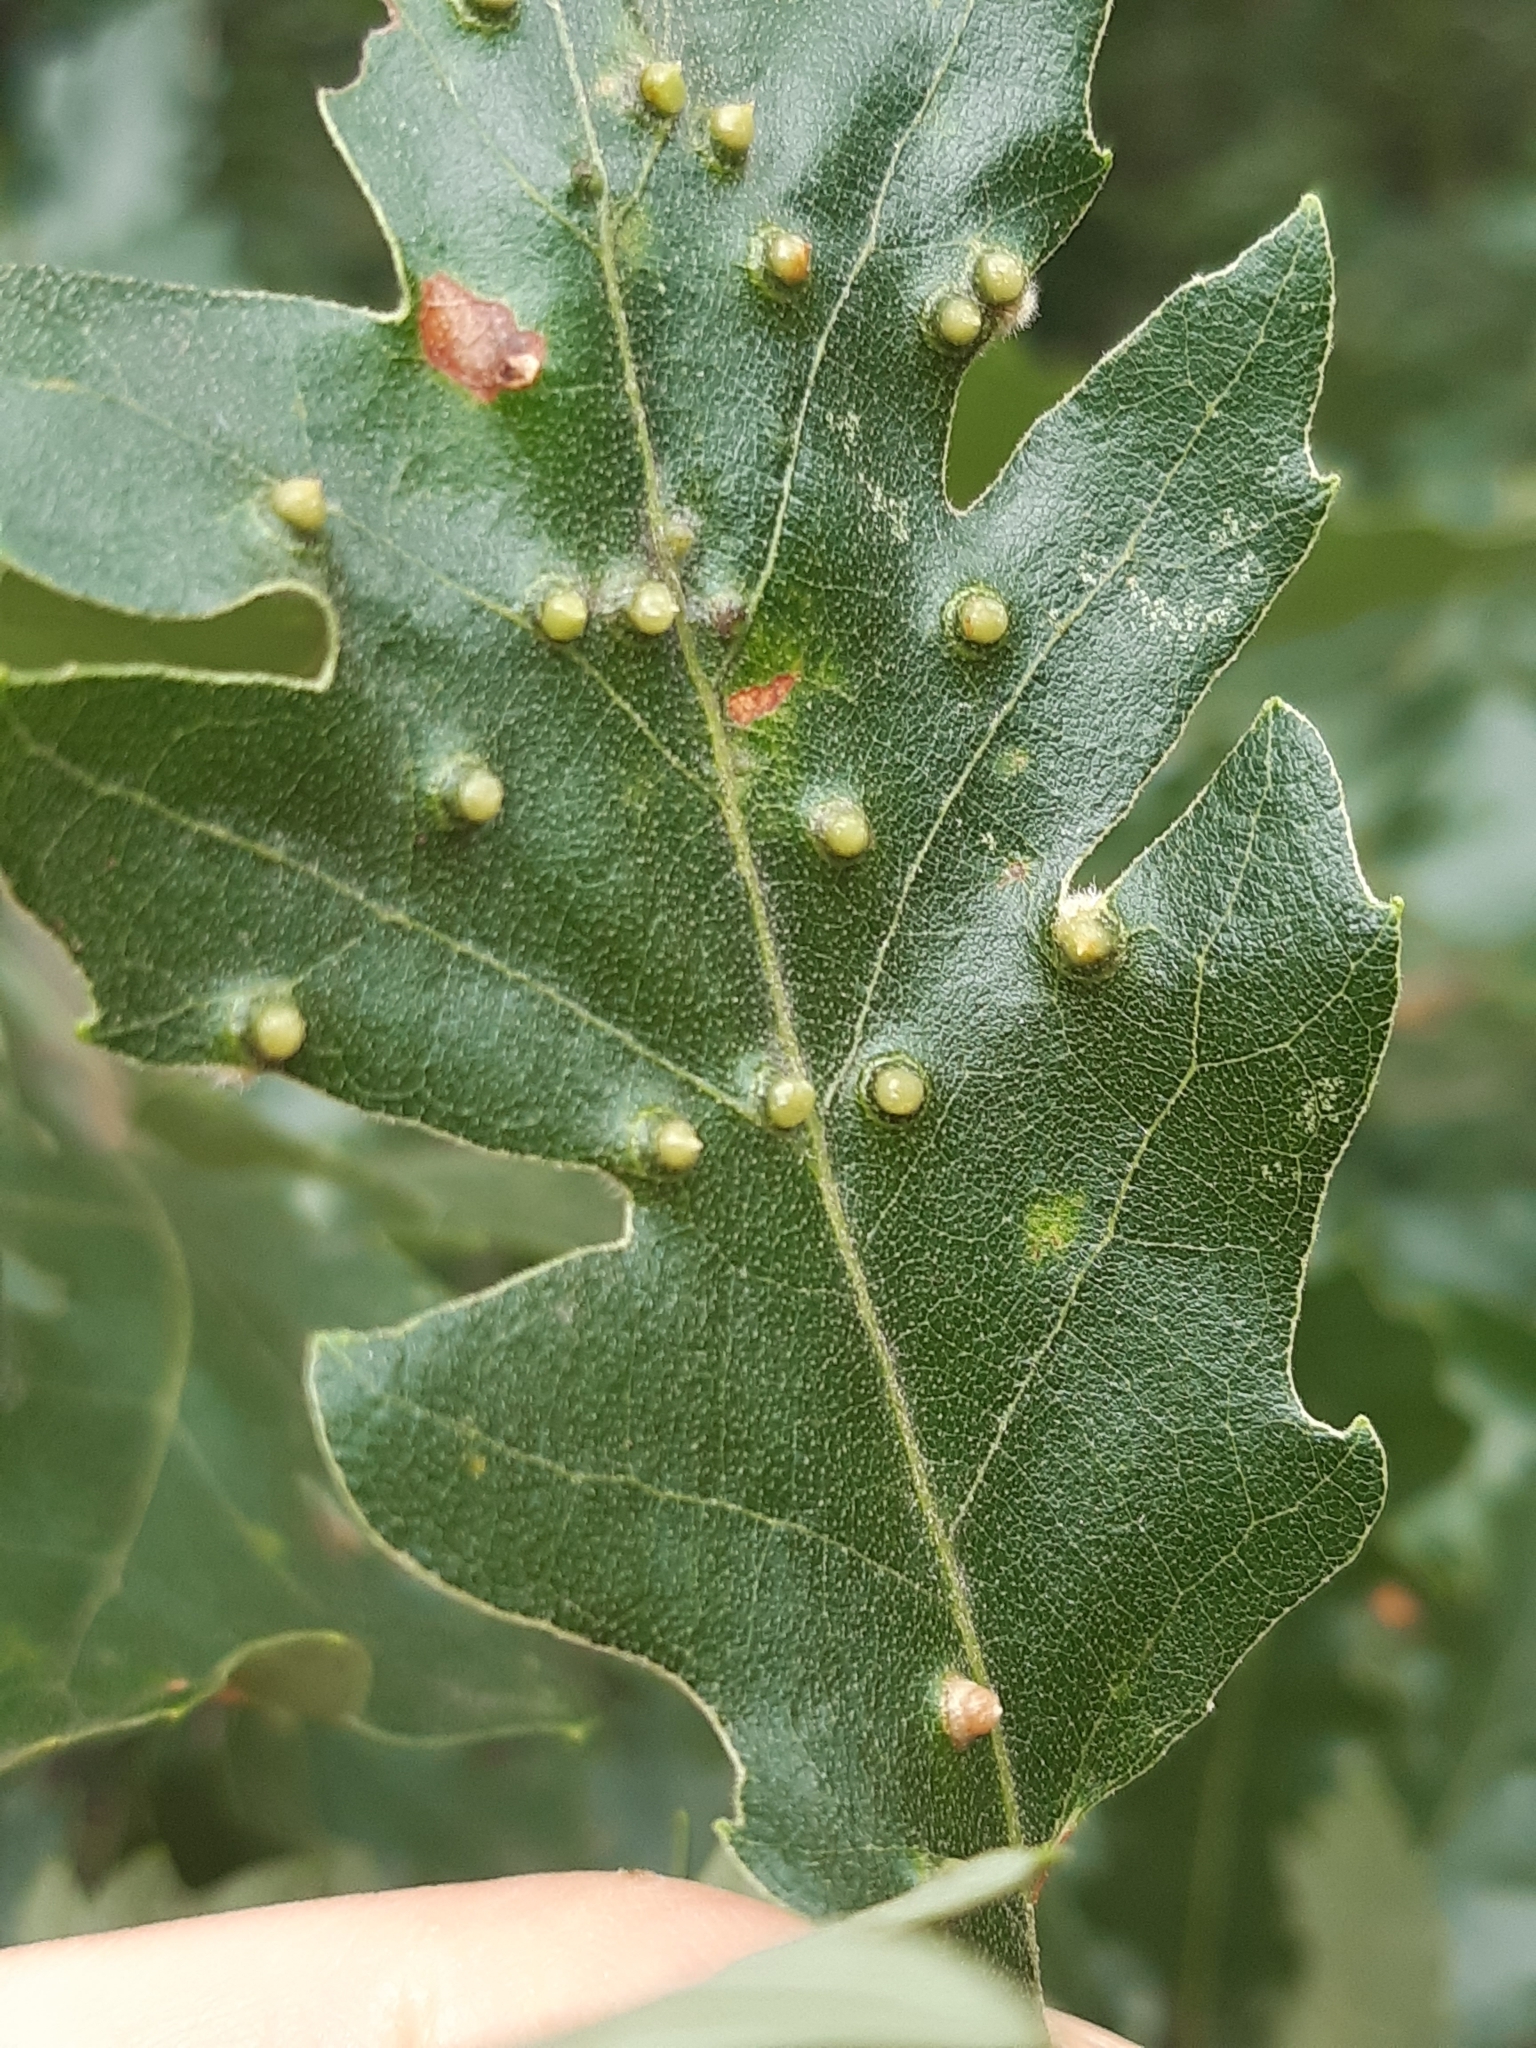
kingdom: Animalia
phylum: Arthropoda
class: Insecta
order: Diptera
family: Cecidomyiidae
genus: Janetia
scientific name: Janetia cerris
